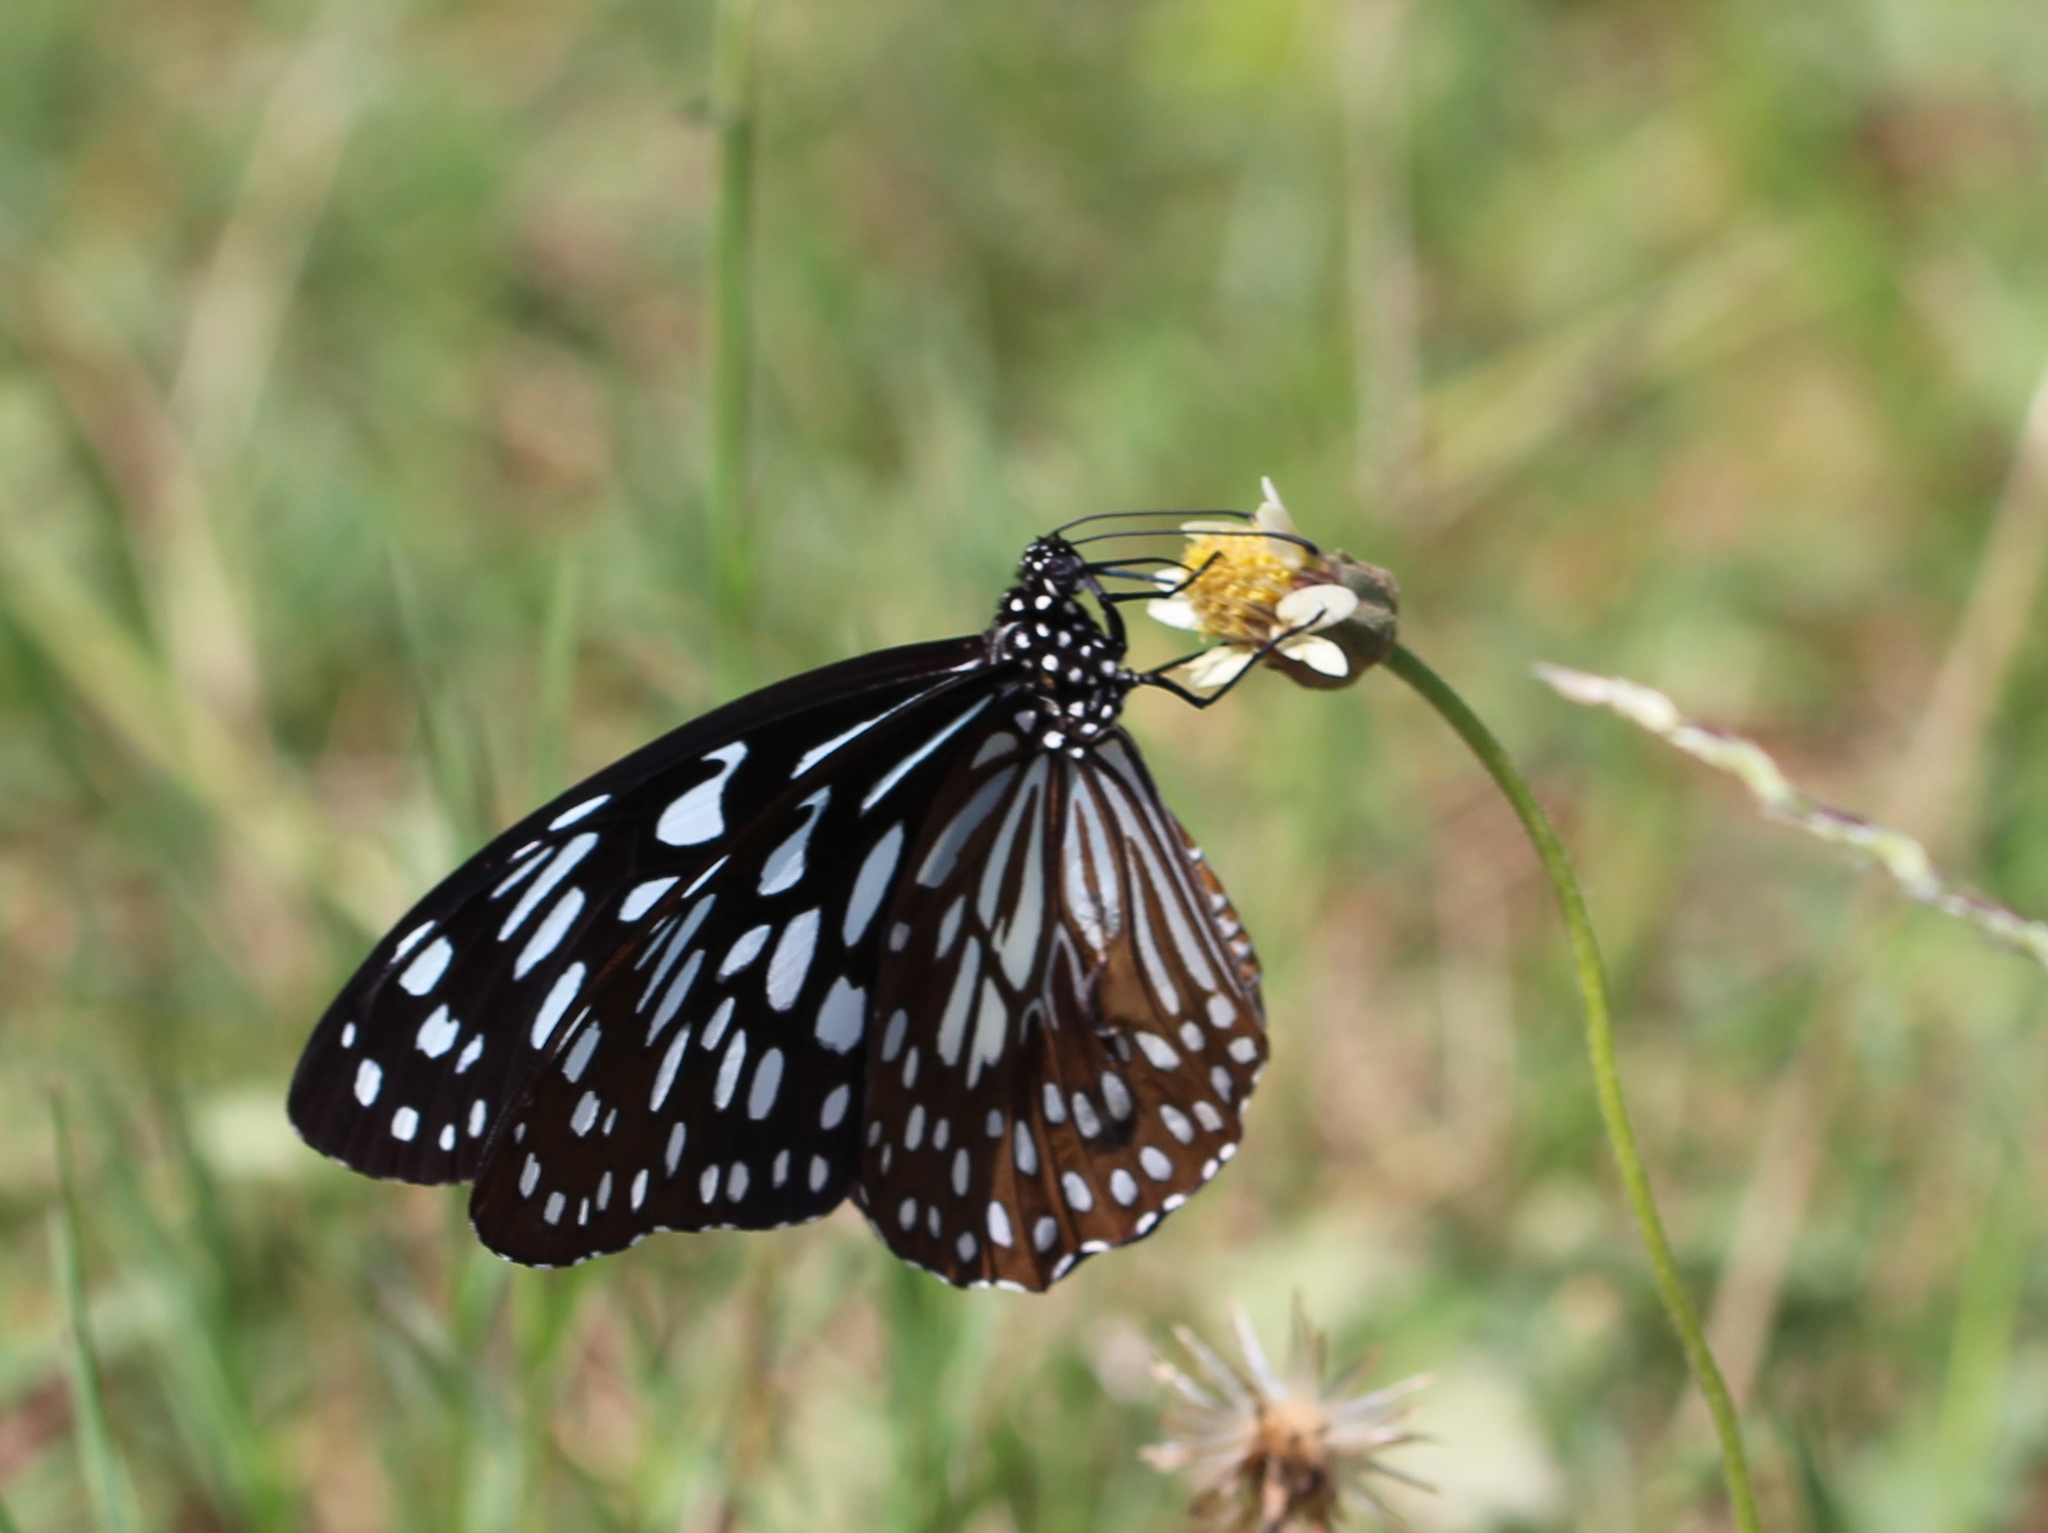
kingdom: Animalia
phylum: Arthropoda
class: Insecta
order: Lepidoptera
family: Nymphalidae
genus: Tirumala
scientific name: Tirumala septentrionis
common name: Dark blue tiger butterfly
